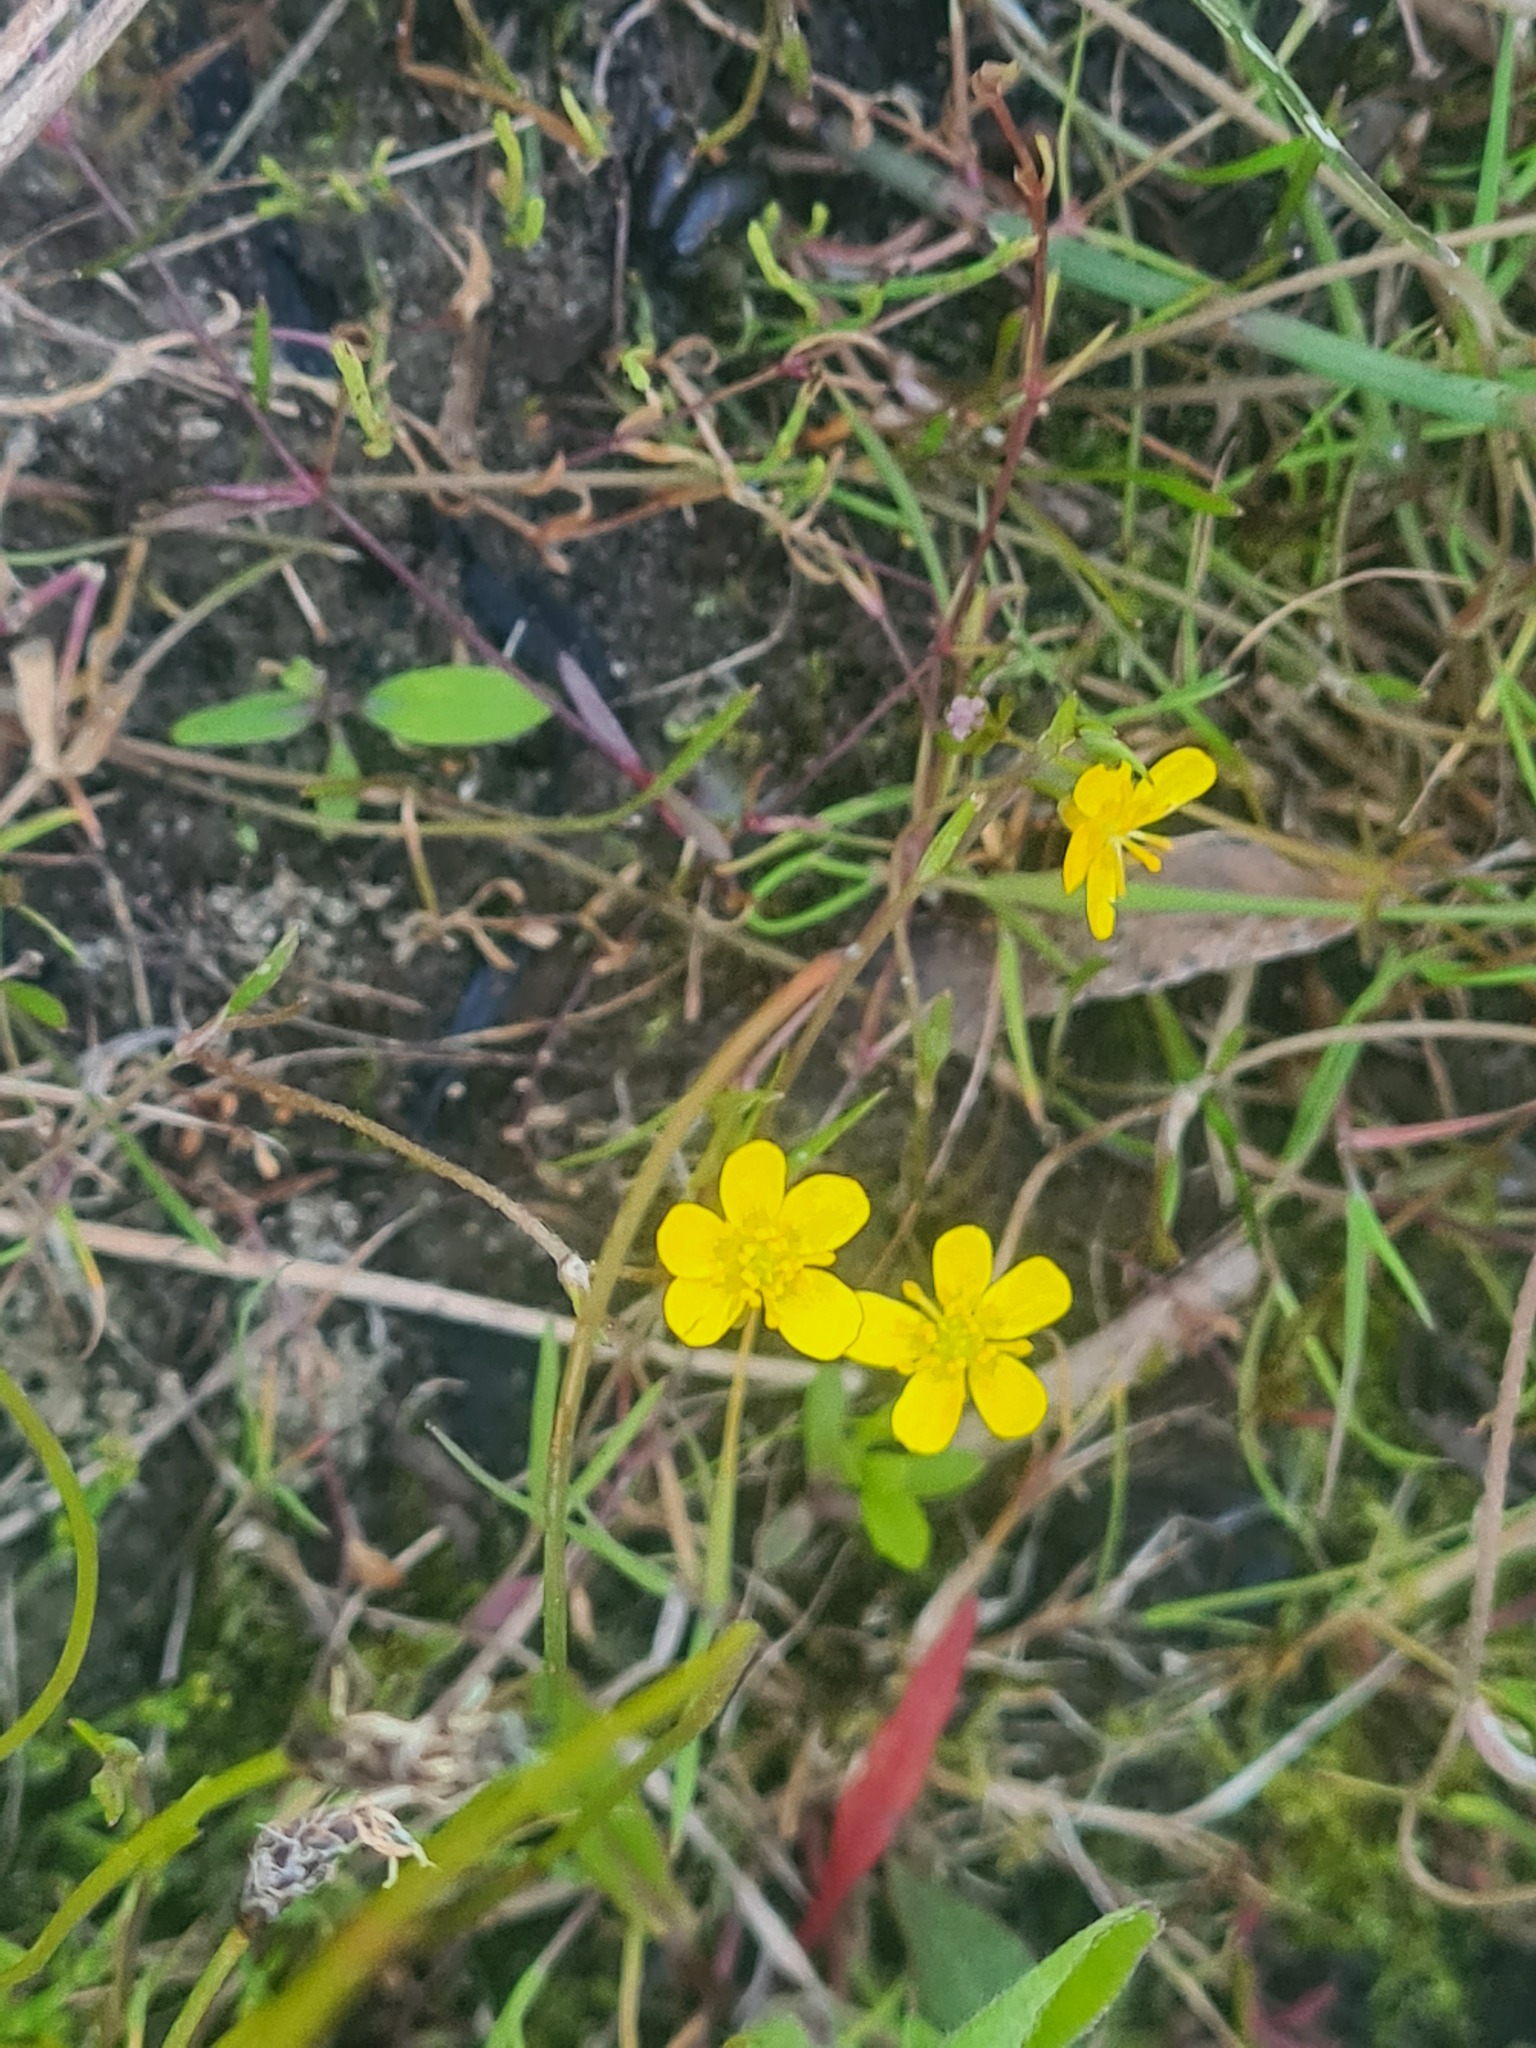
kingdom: Plantae
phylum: Tracheophyta
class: Magnoliopsida
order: Ranunculales
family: Ranunculaceae
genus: Ranunculus
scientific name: Ranunculus reptans
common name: Creeping spearwort
